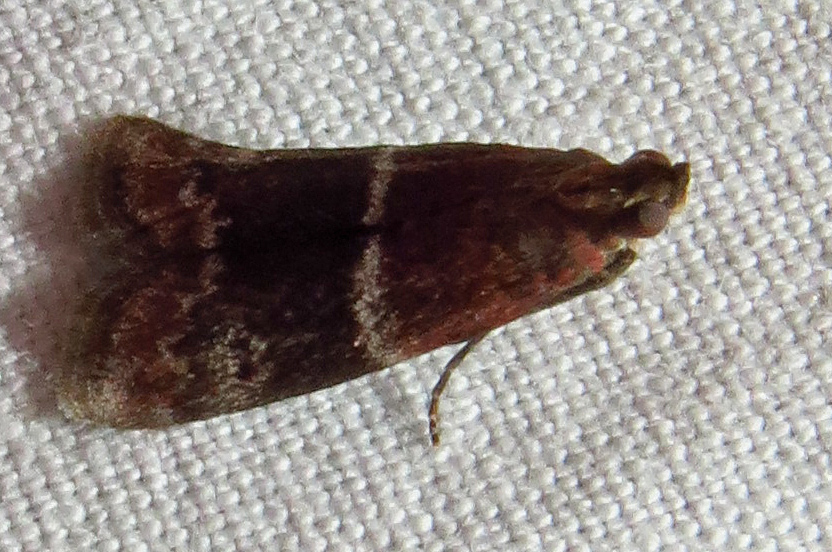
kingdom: Animalia
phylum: Arthropoda
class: Insecta
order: Lepidoptera
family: Pyralidae
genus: Moodna
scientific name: Moodna ostrinella
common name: Darker moodna moth
